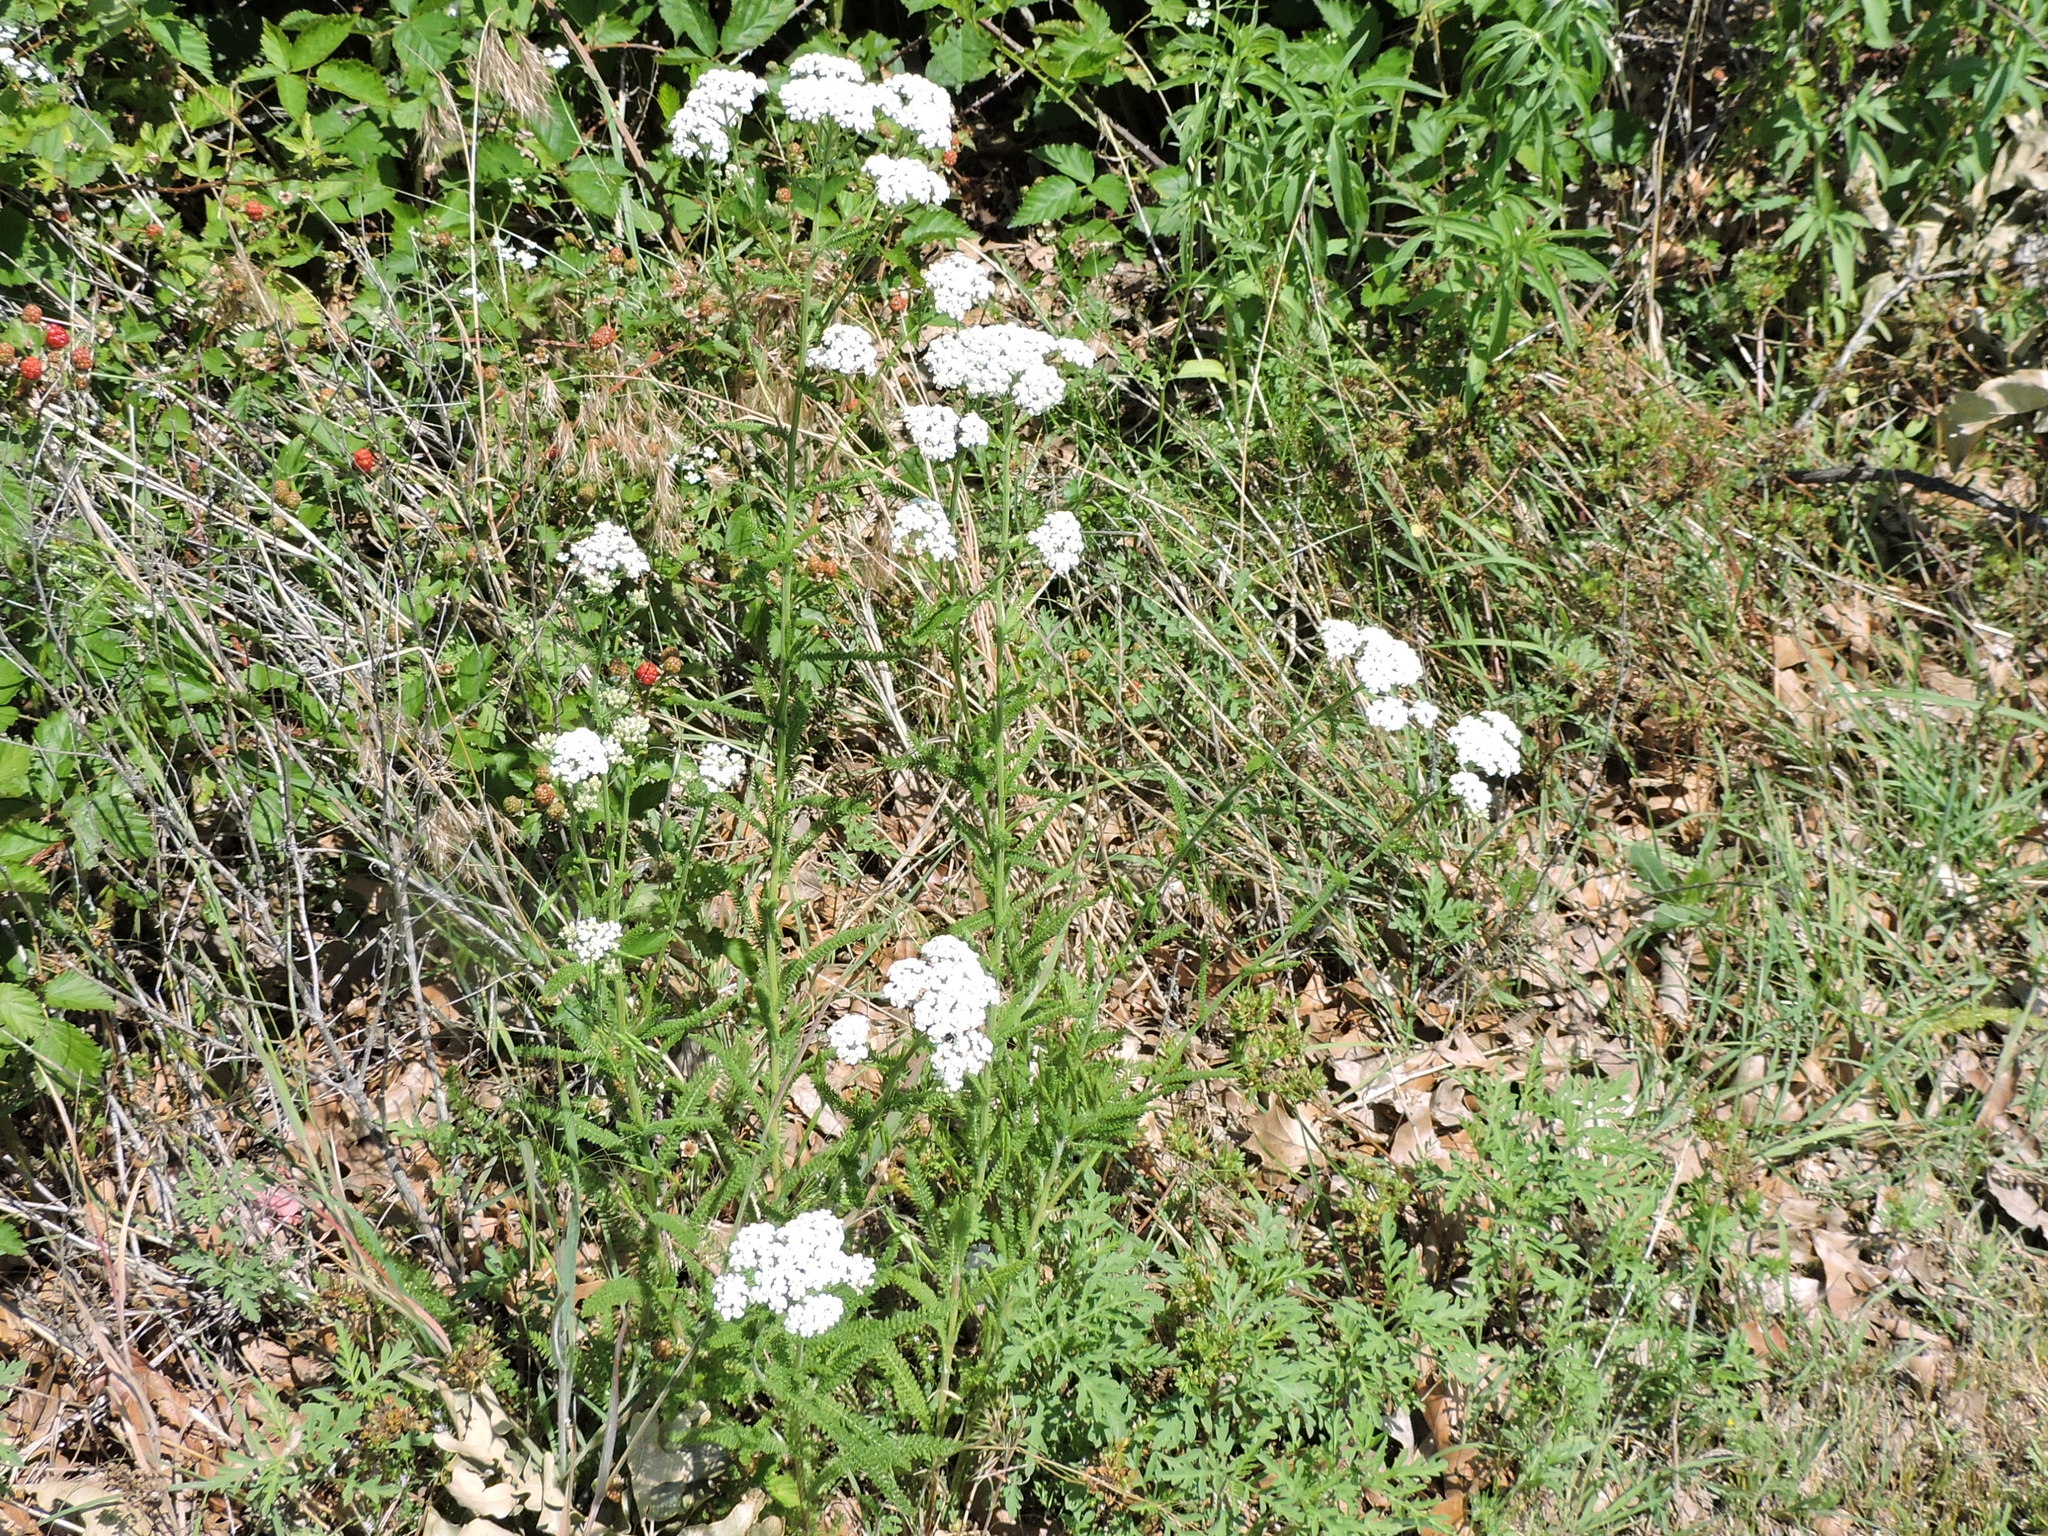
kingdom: Plantae
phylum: Tracheophyta
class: Magnoliopsida
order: Asterales
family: Asteraceae
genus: Achillea
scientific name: Achillea millefolium
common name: Yarrow
